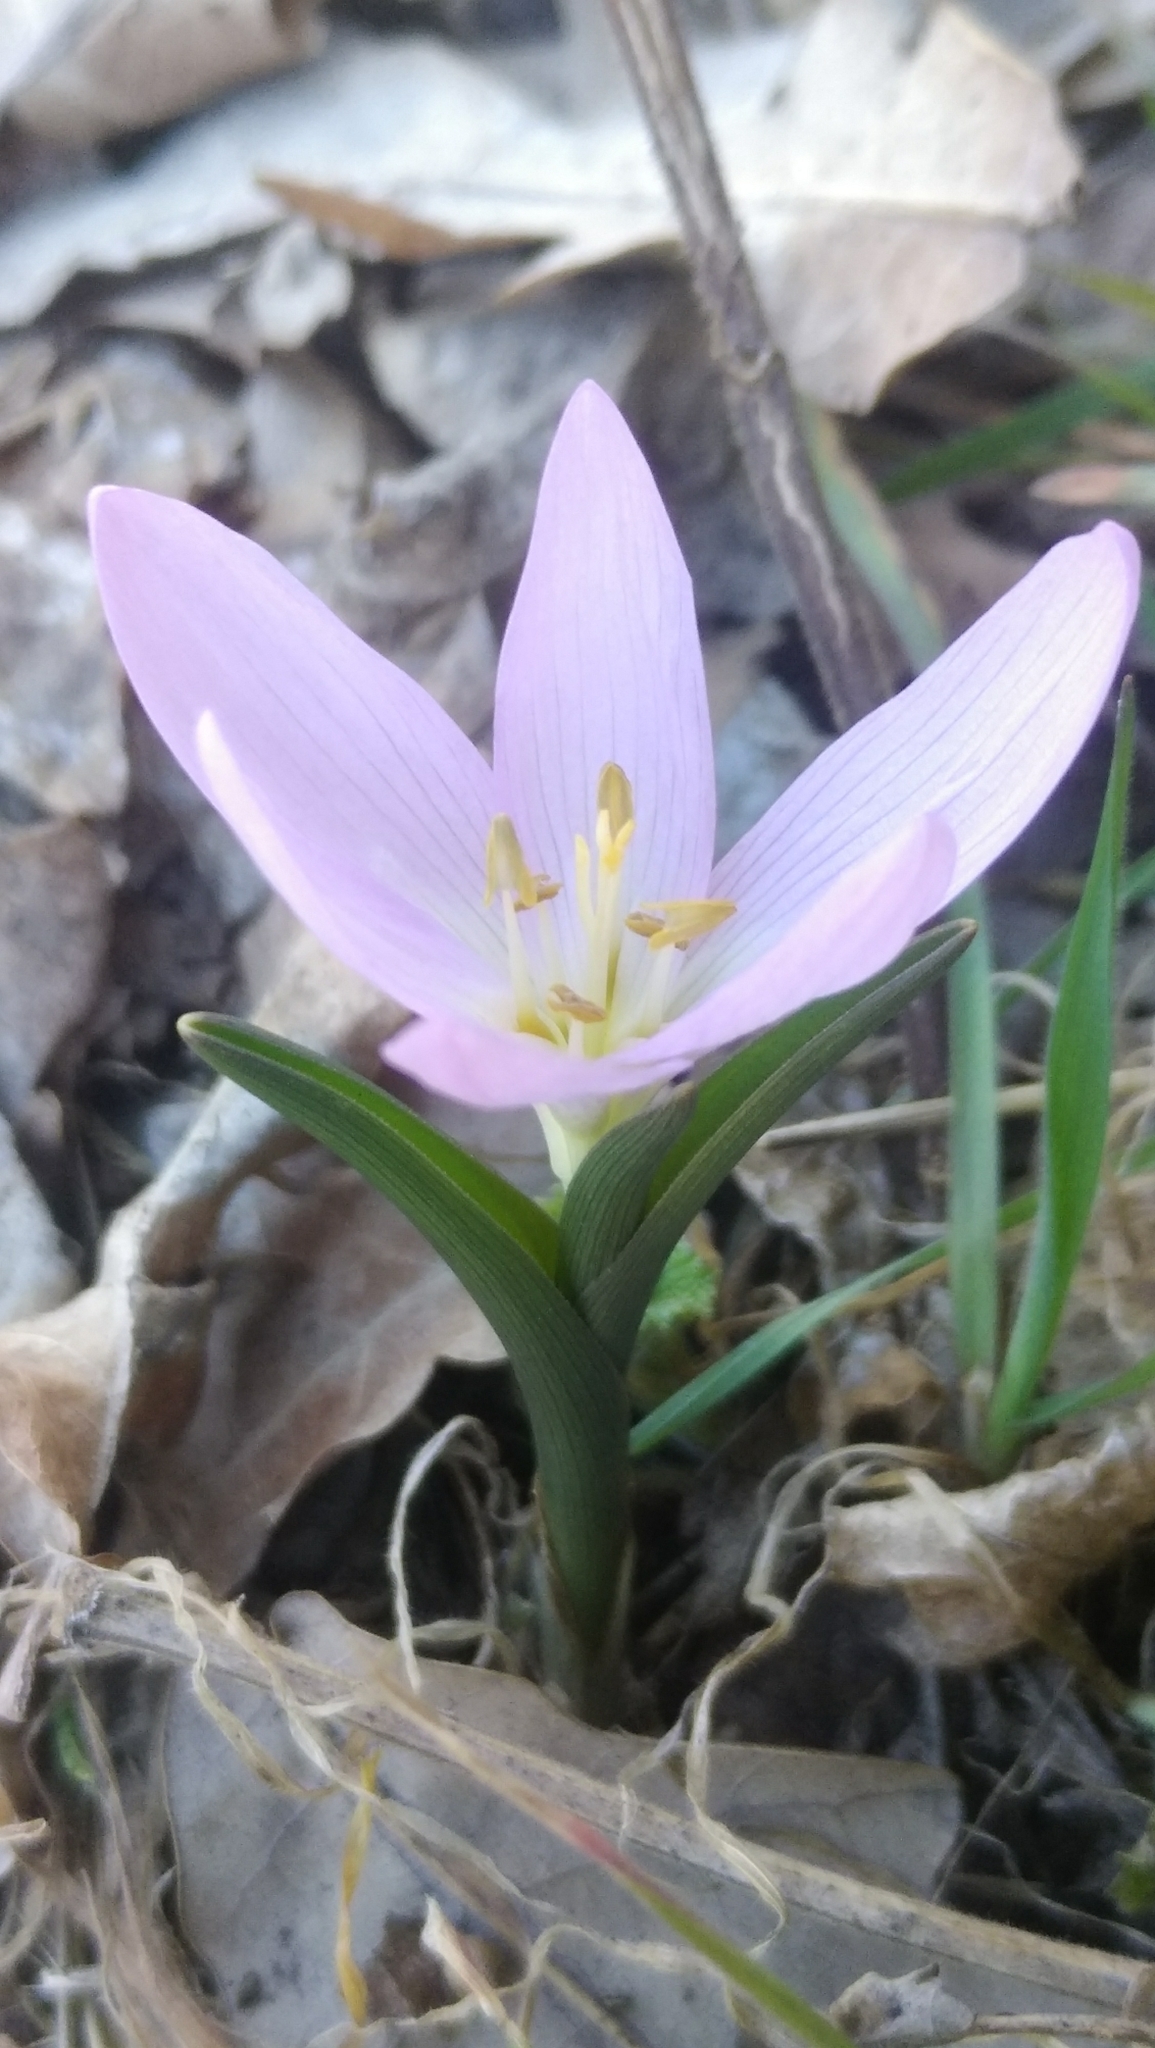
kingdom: Plantae
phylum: Tracheophyta
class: Liliopsida
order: Liliales
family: Colchicaceae
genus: Colchicum
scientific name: Colchicum bulbocodium
